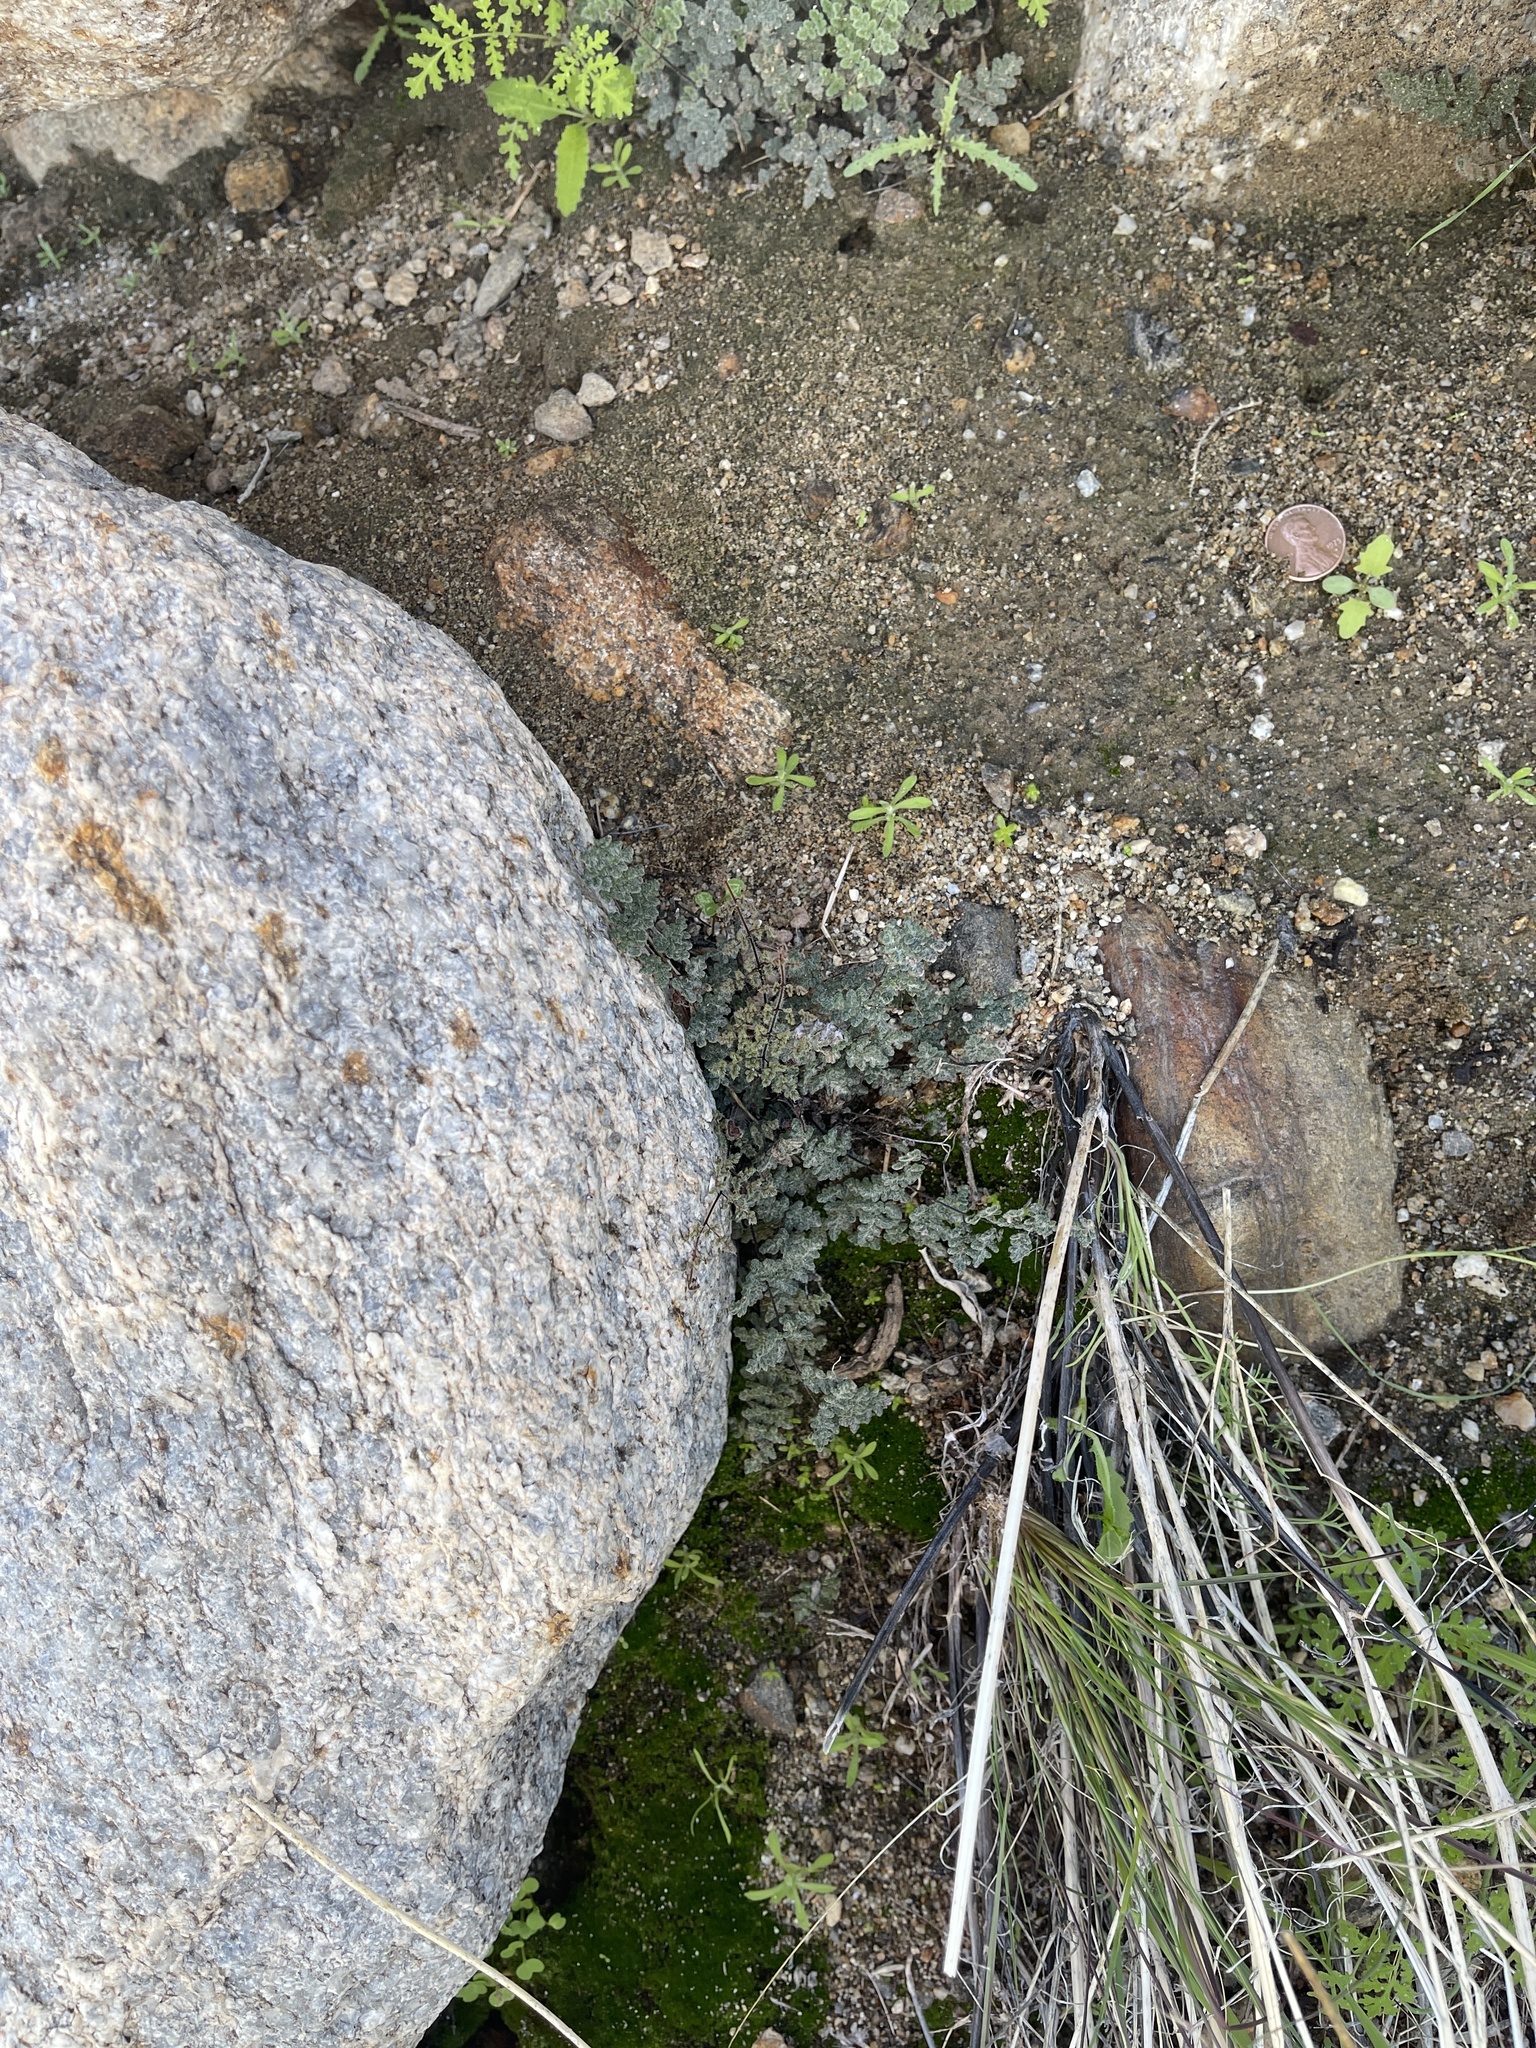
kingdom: Plantae
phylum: Tracheophyta
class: Magnoliopsida
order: Asterales
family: Asteraceae
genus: Laphamia
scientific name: Laphamia emoryi
